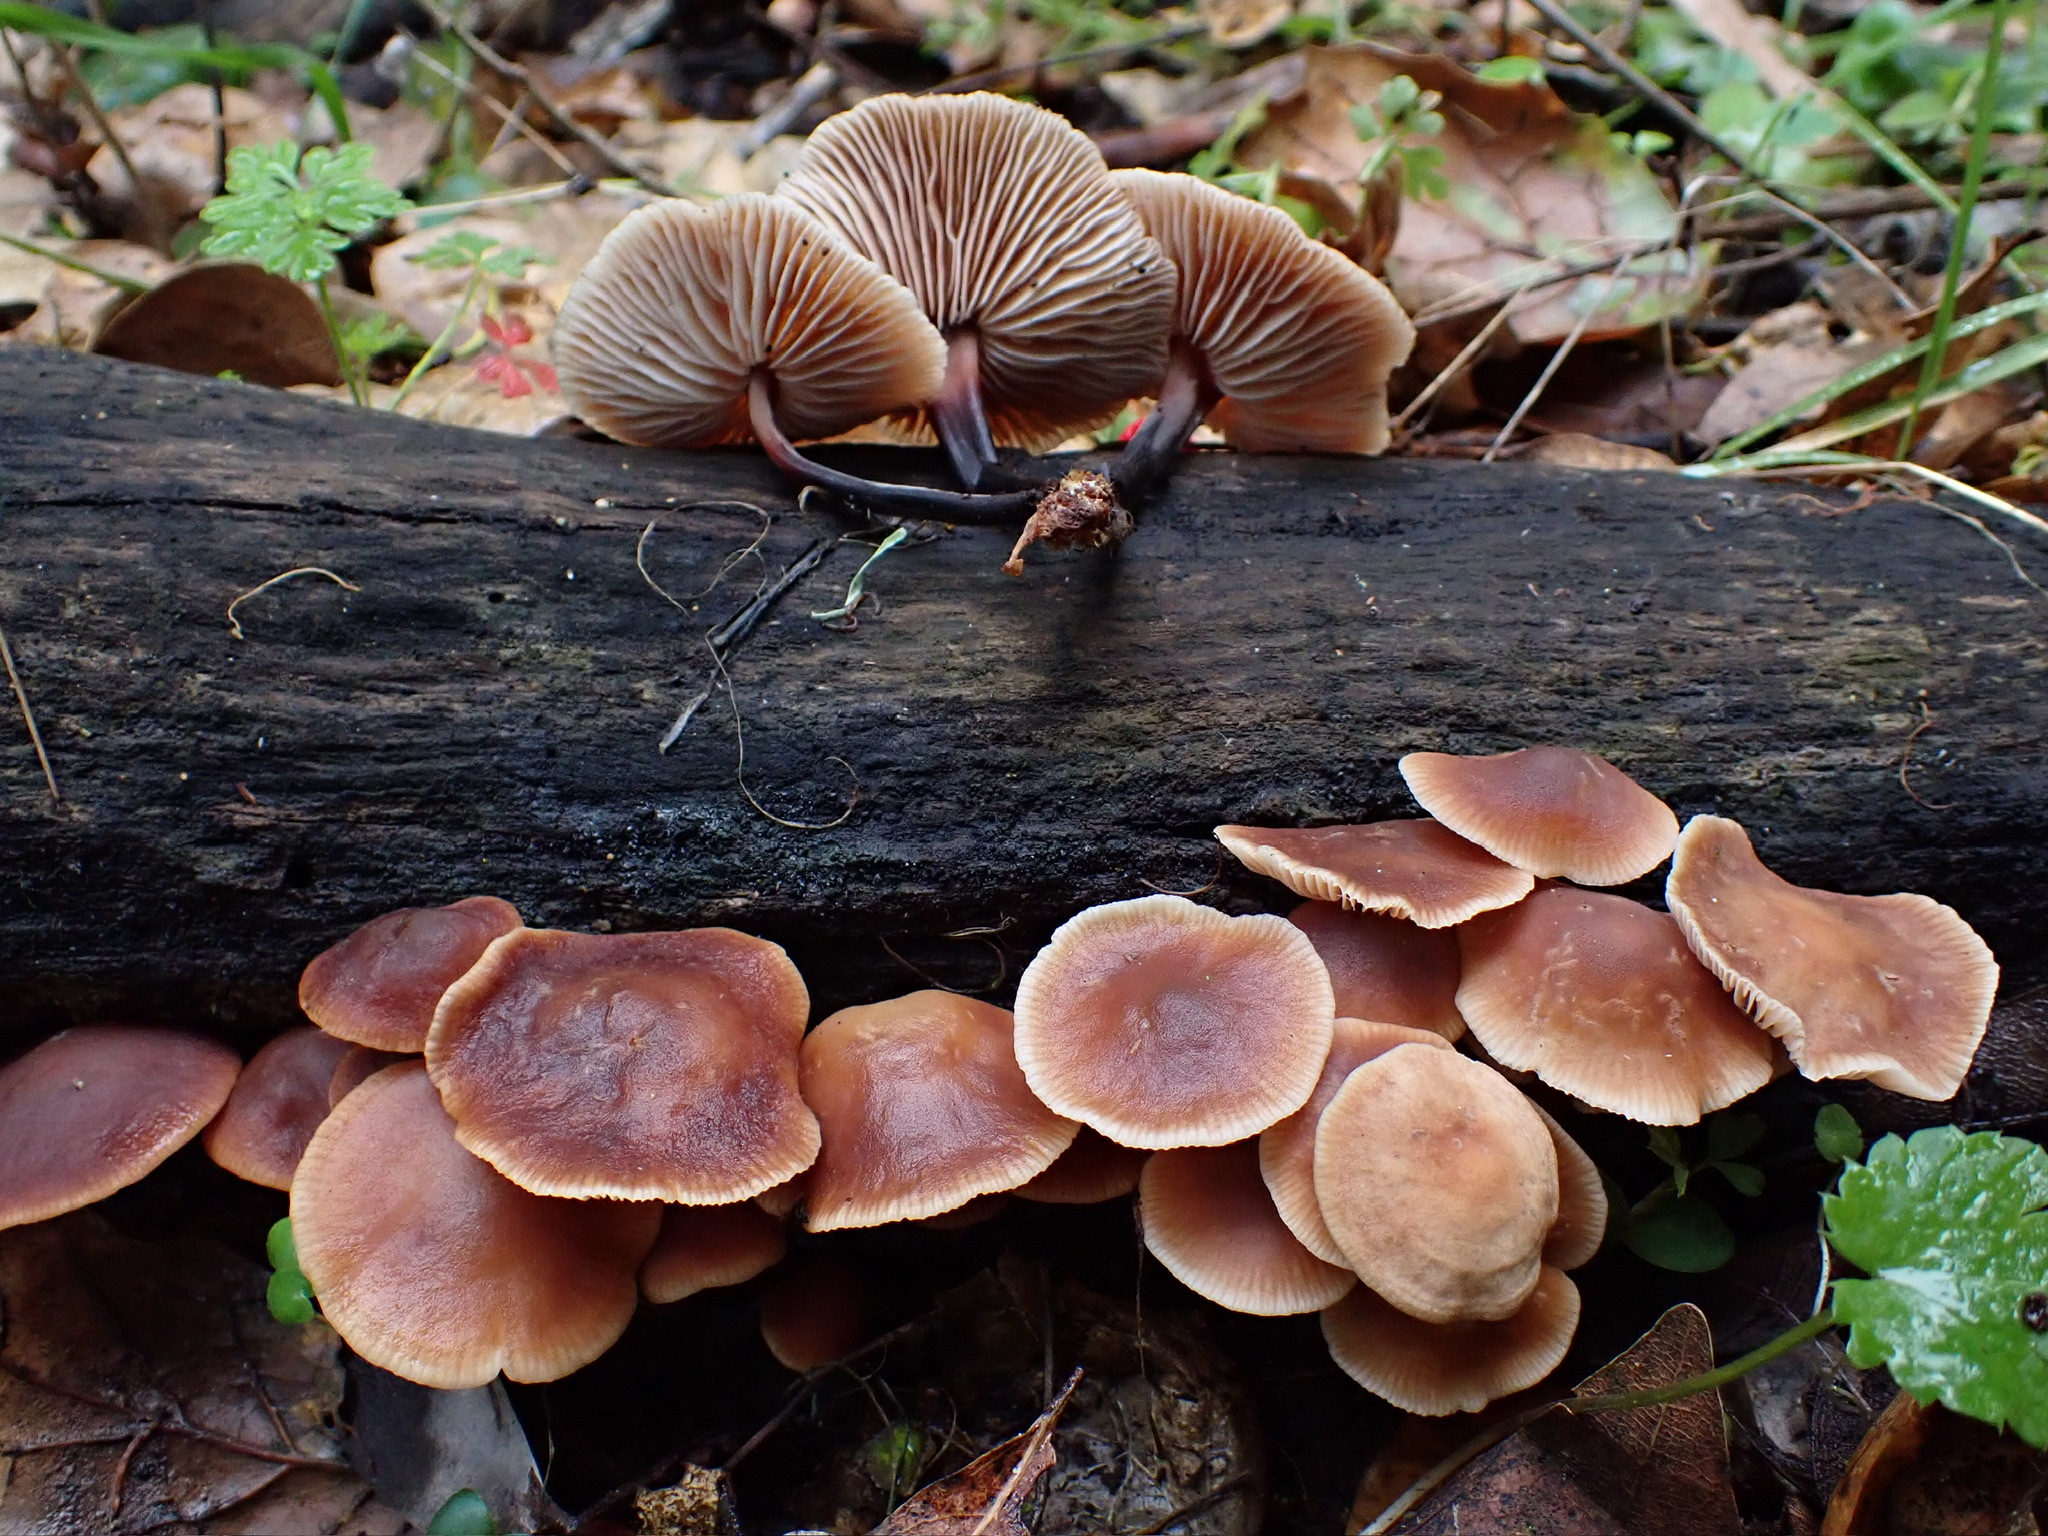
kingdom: Fungi
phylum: Basidiomycota
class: Agaricomycetes
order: Agaricales
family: Omphalotaceae
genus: Gymnopus
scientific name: Gymnopus brassicolens
